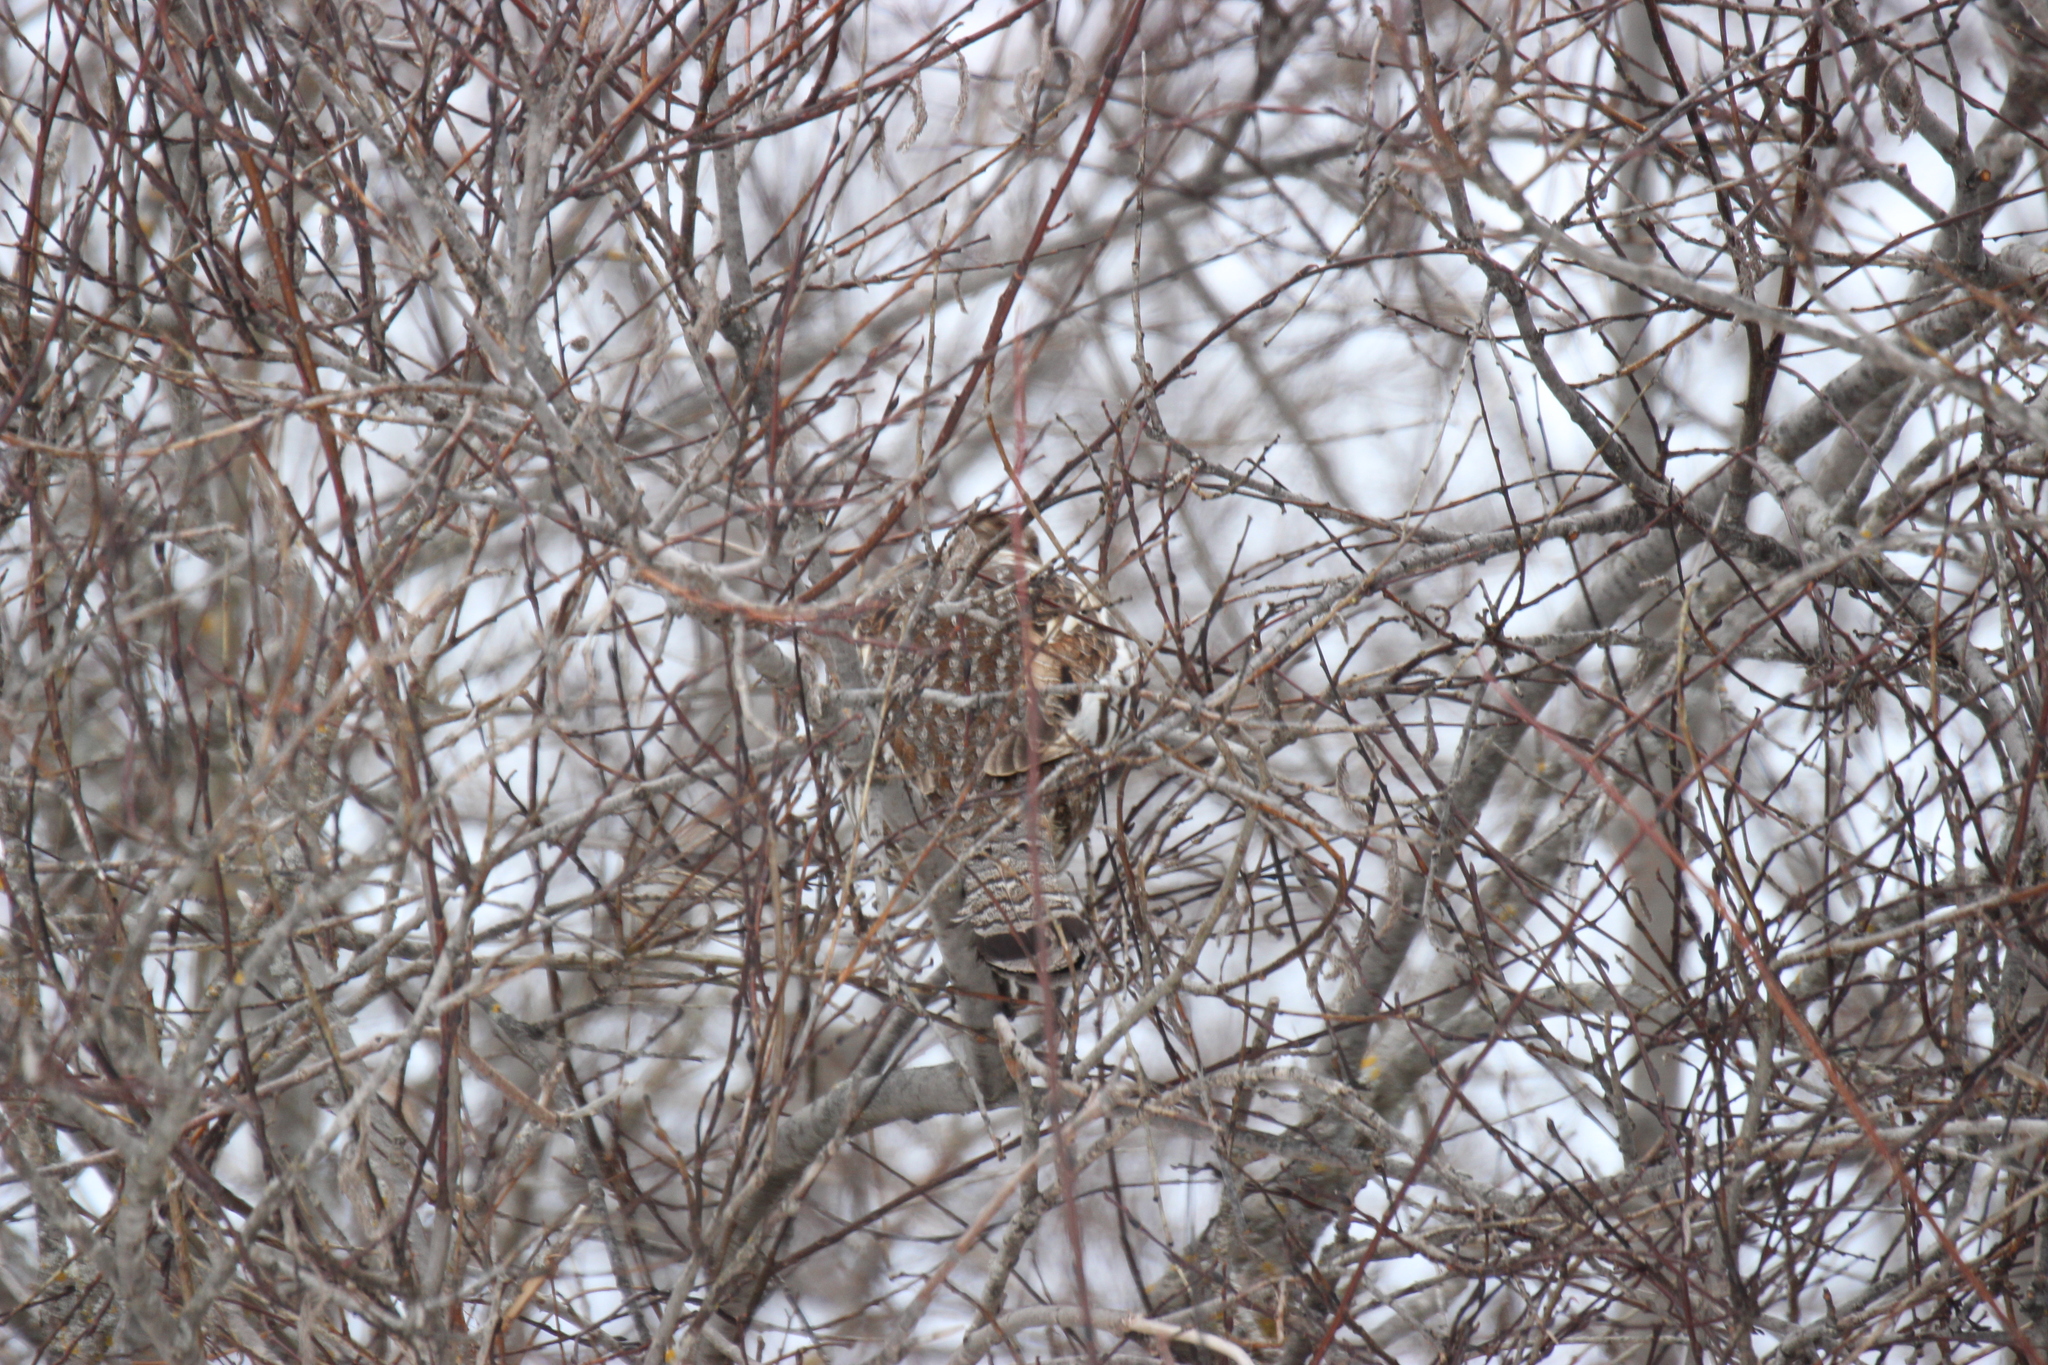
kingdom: Animalia
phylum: Chordata
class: Aves
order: Galliformes
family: Phasianidae
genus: Bonasa
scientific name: Bonasa umbellus
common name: Ruffed grouse
